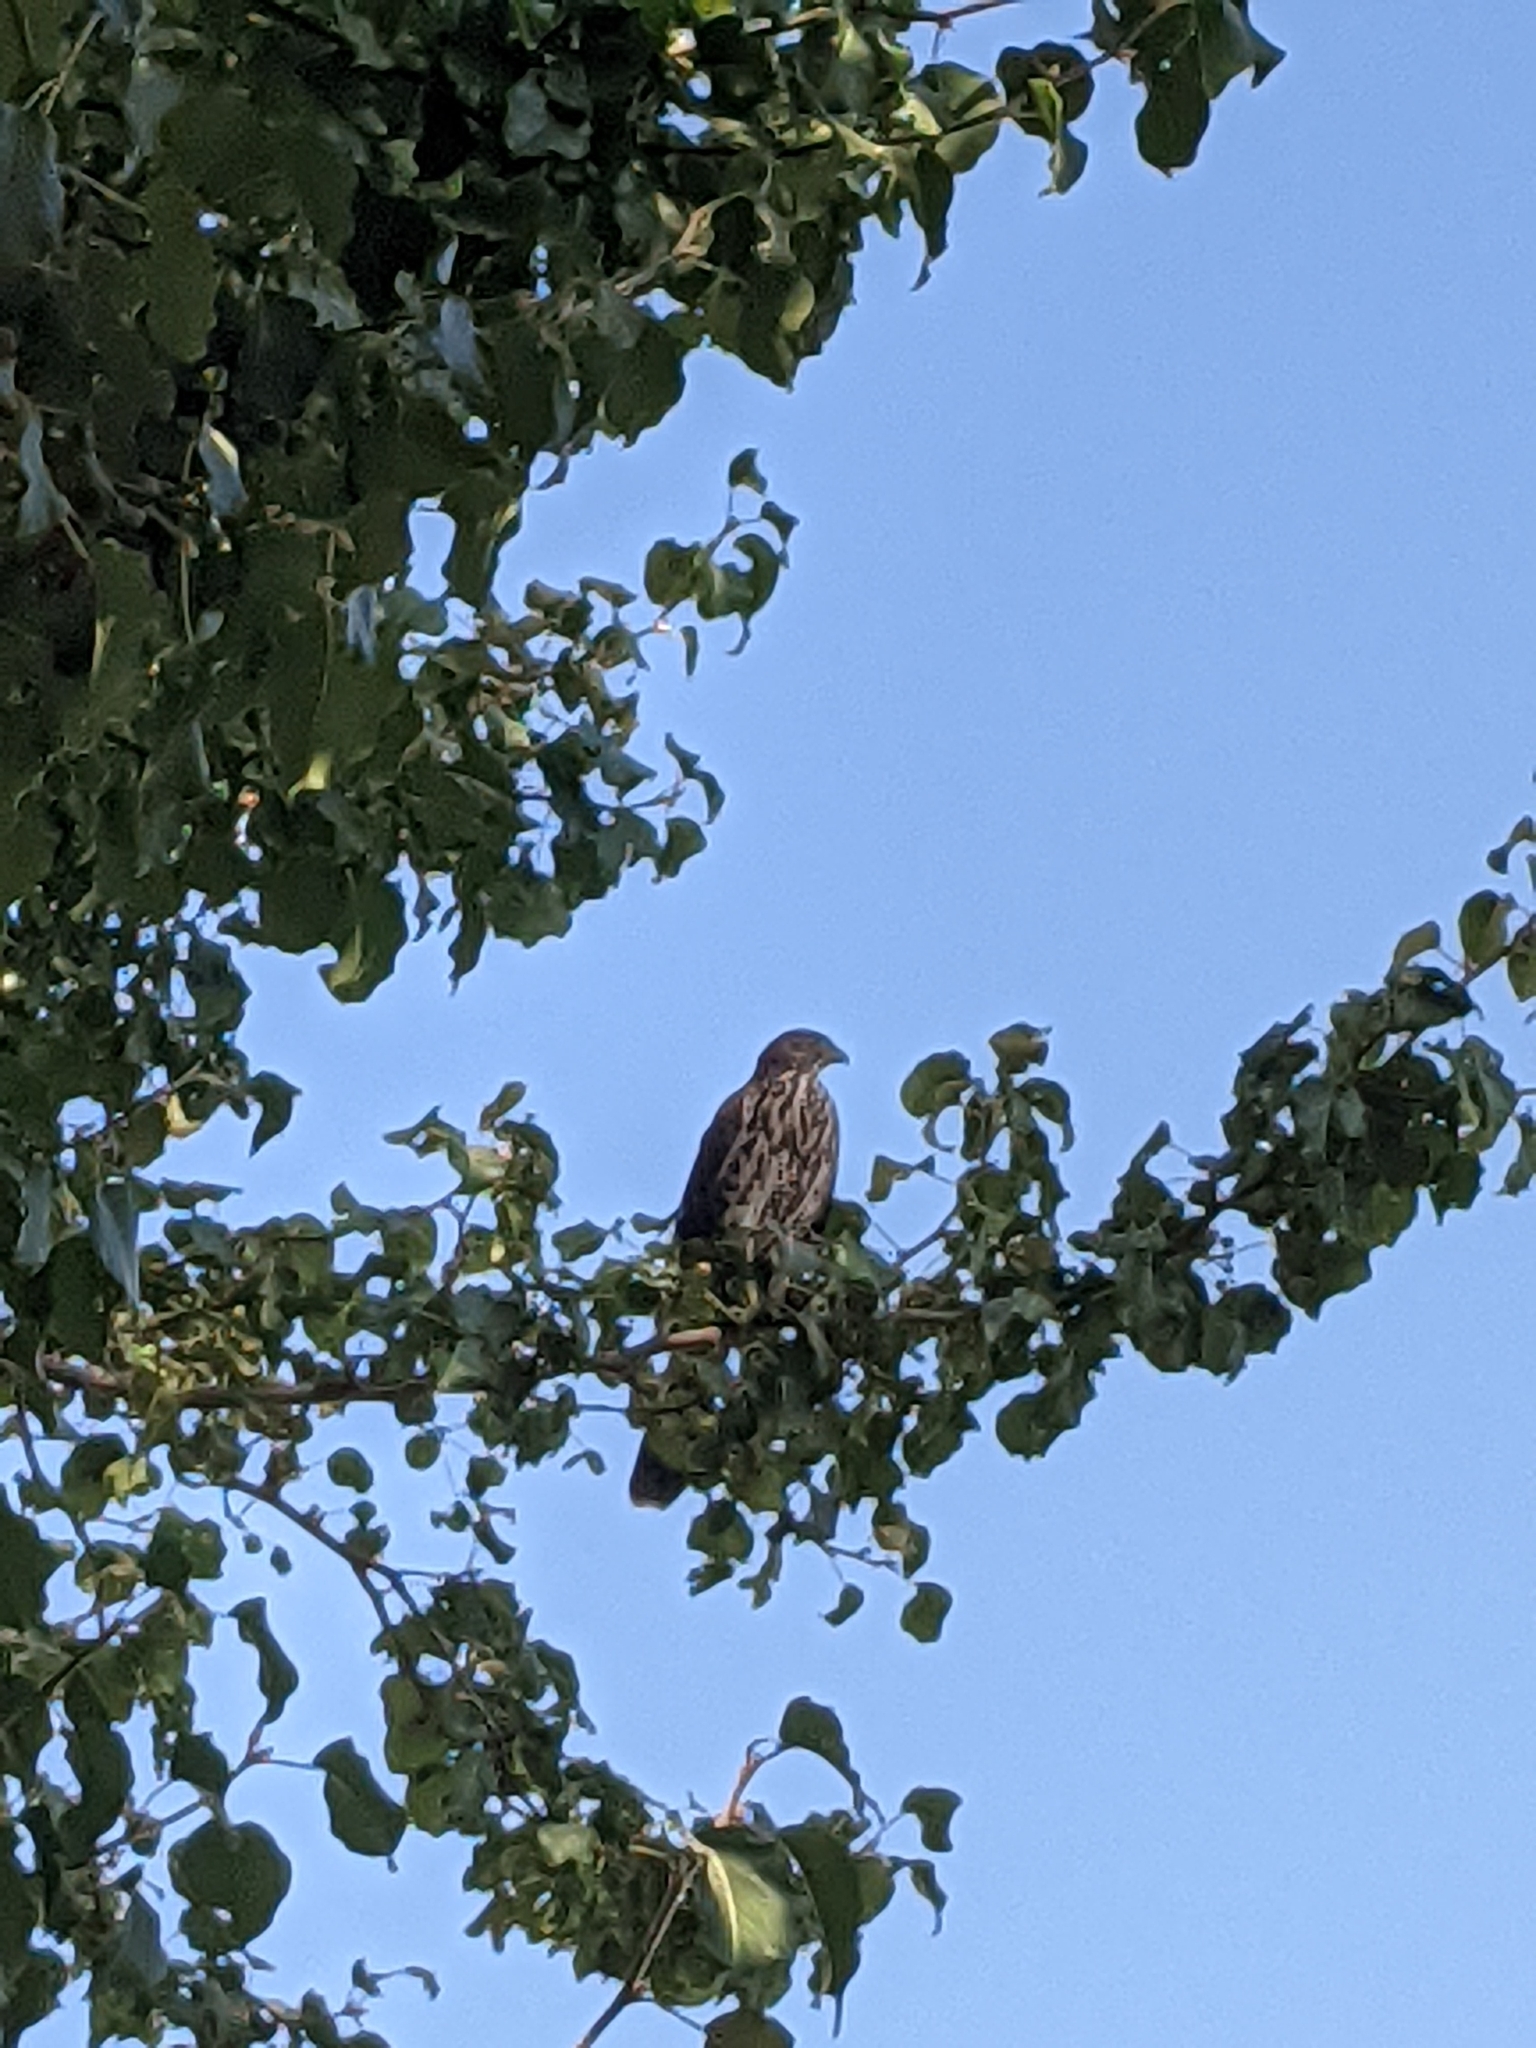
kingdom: Animalia
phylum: Chordata
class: Aves
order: Accipitriformes
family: Accipitridae
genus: Accipiter
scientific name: Accipiter cooperii
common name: Cooper's hawk
